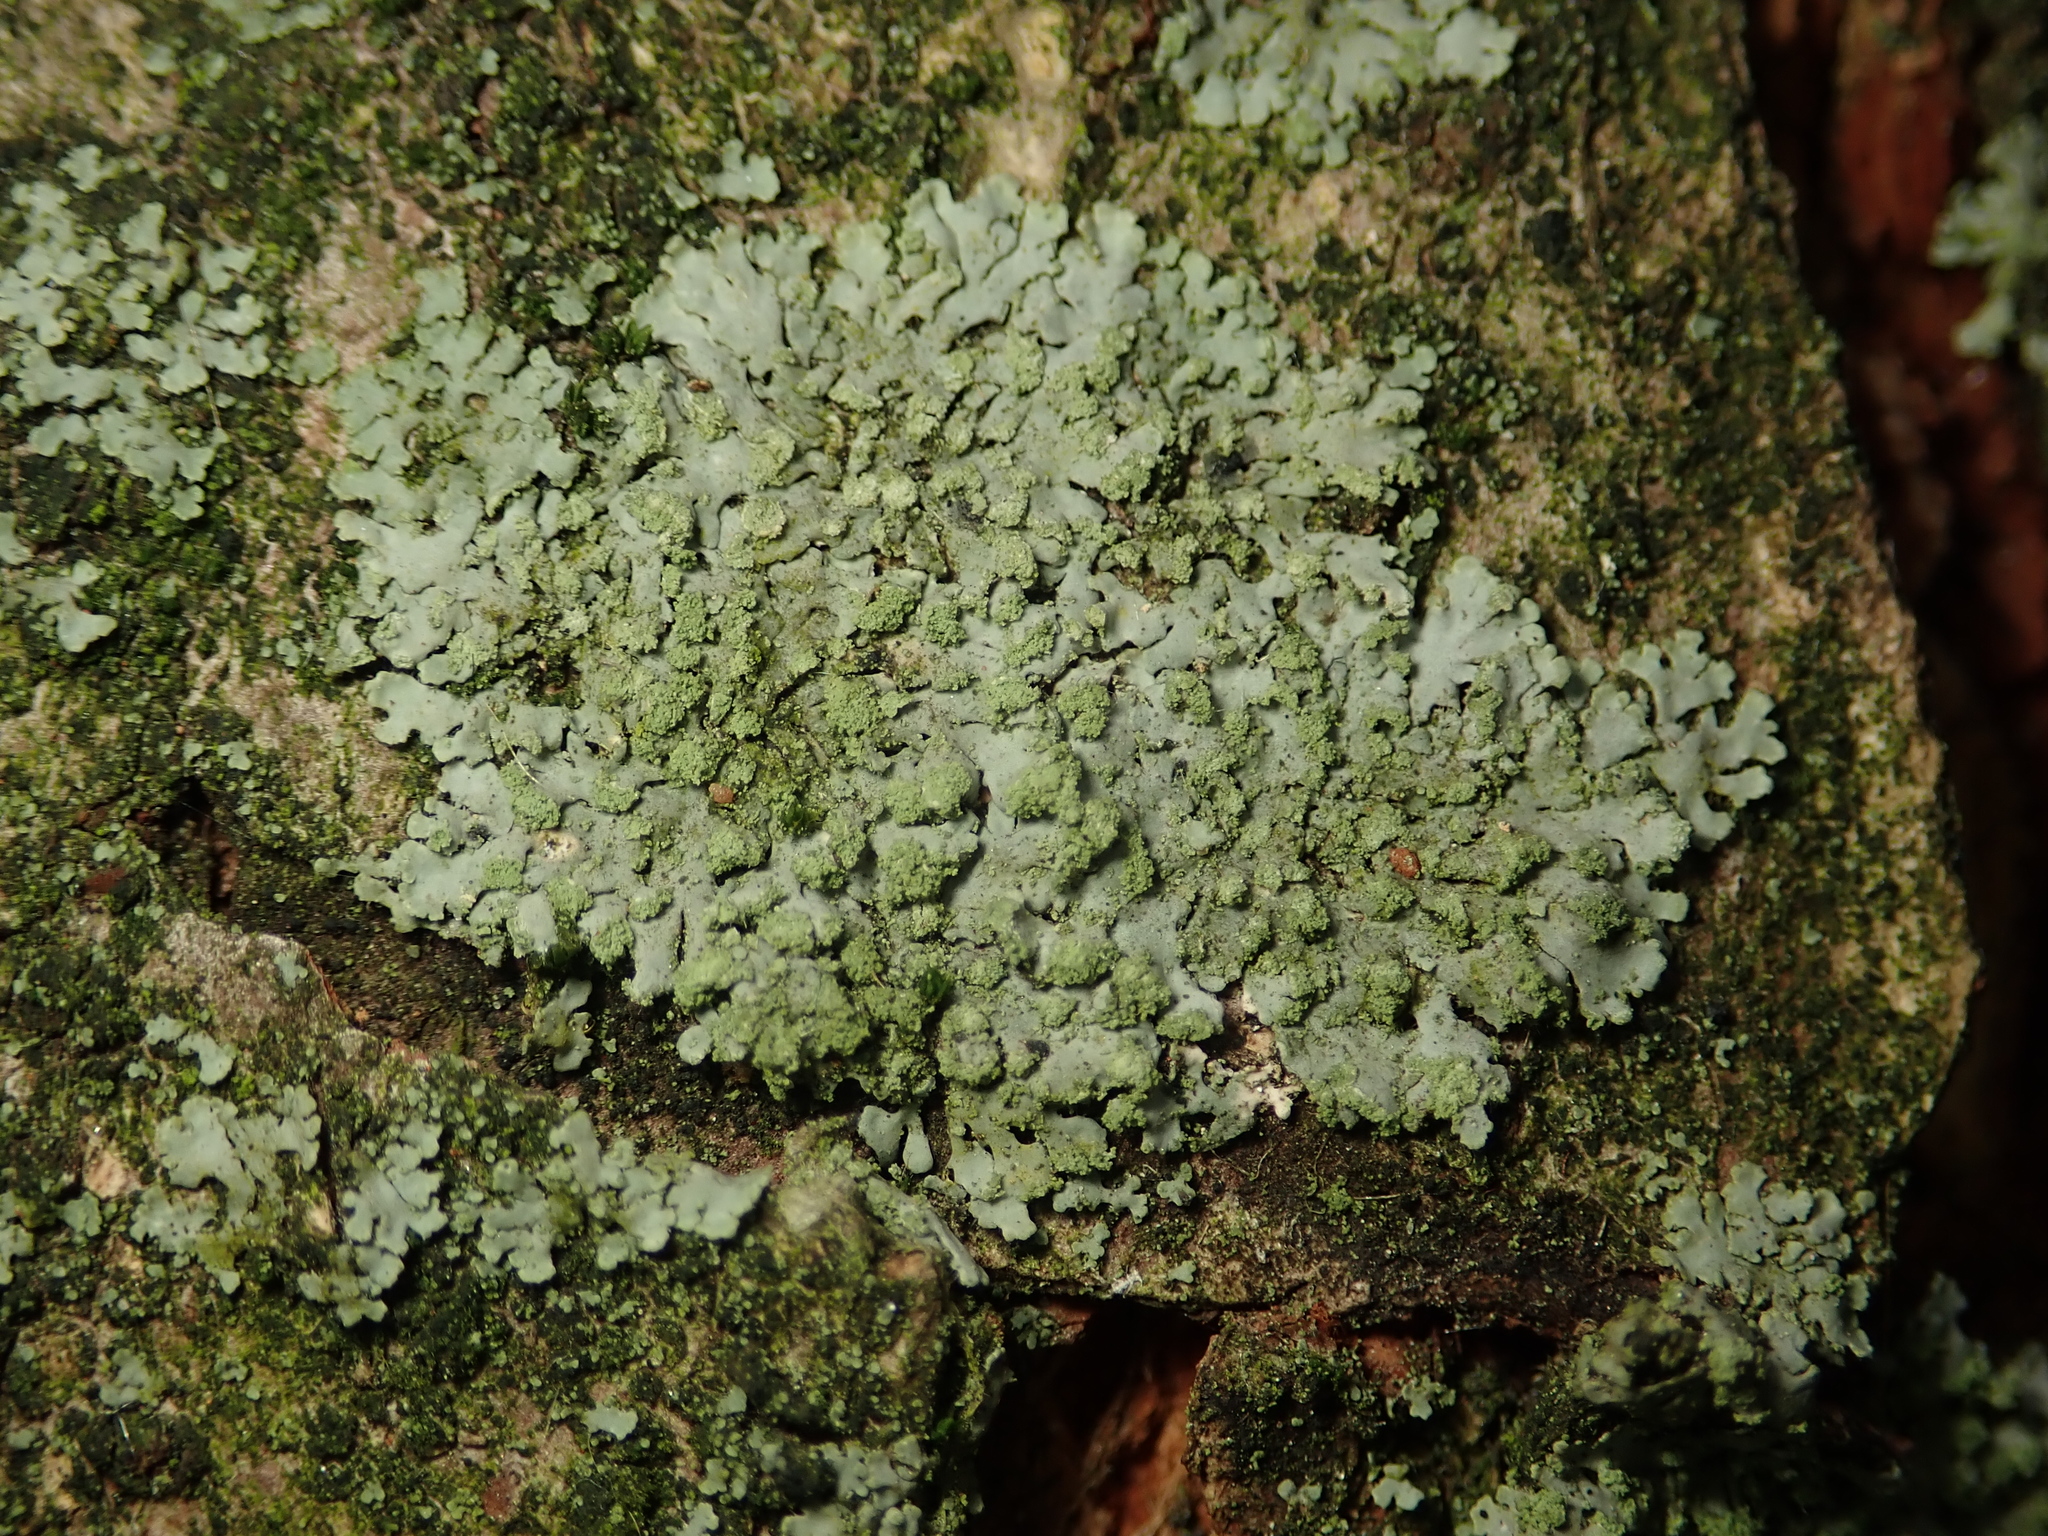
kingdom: Fungi
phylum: Ascomycota
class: Lecanoromycetes
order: Caliciales
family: Physciaceae
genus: Phaeophyscia
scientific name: Phaeophyscia orbicularis
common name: Mealy shadow lichen
